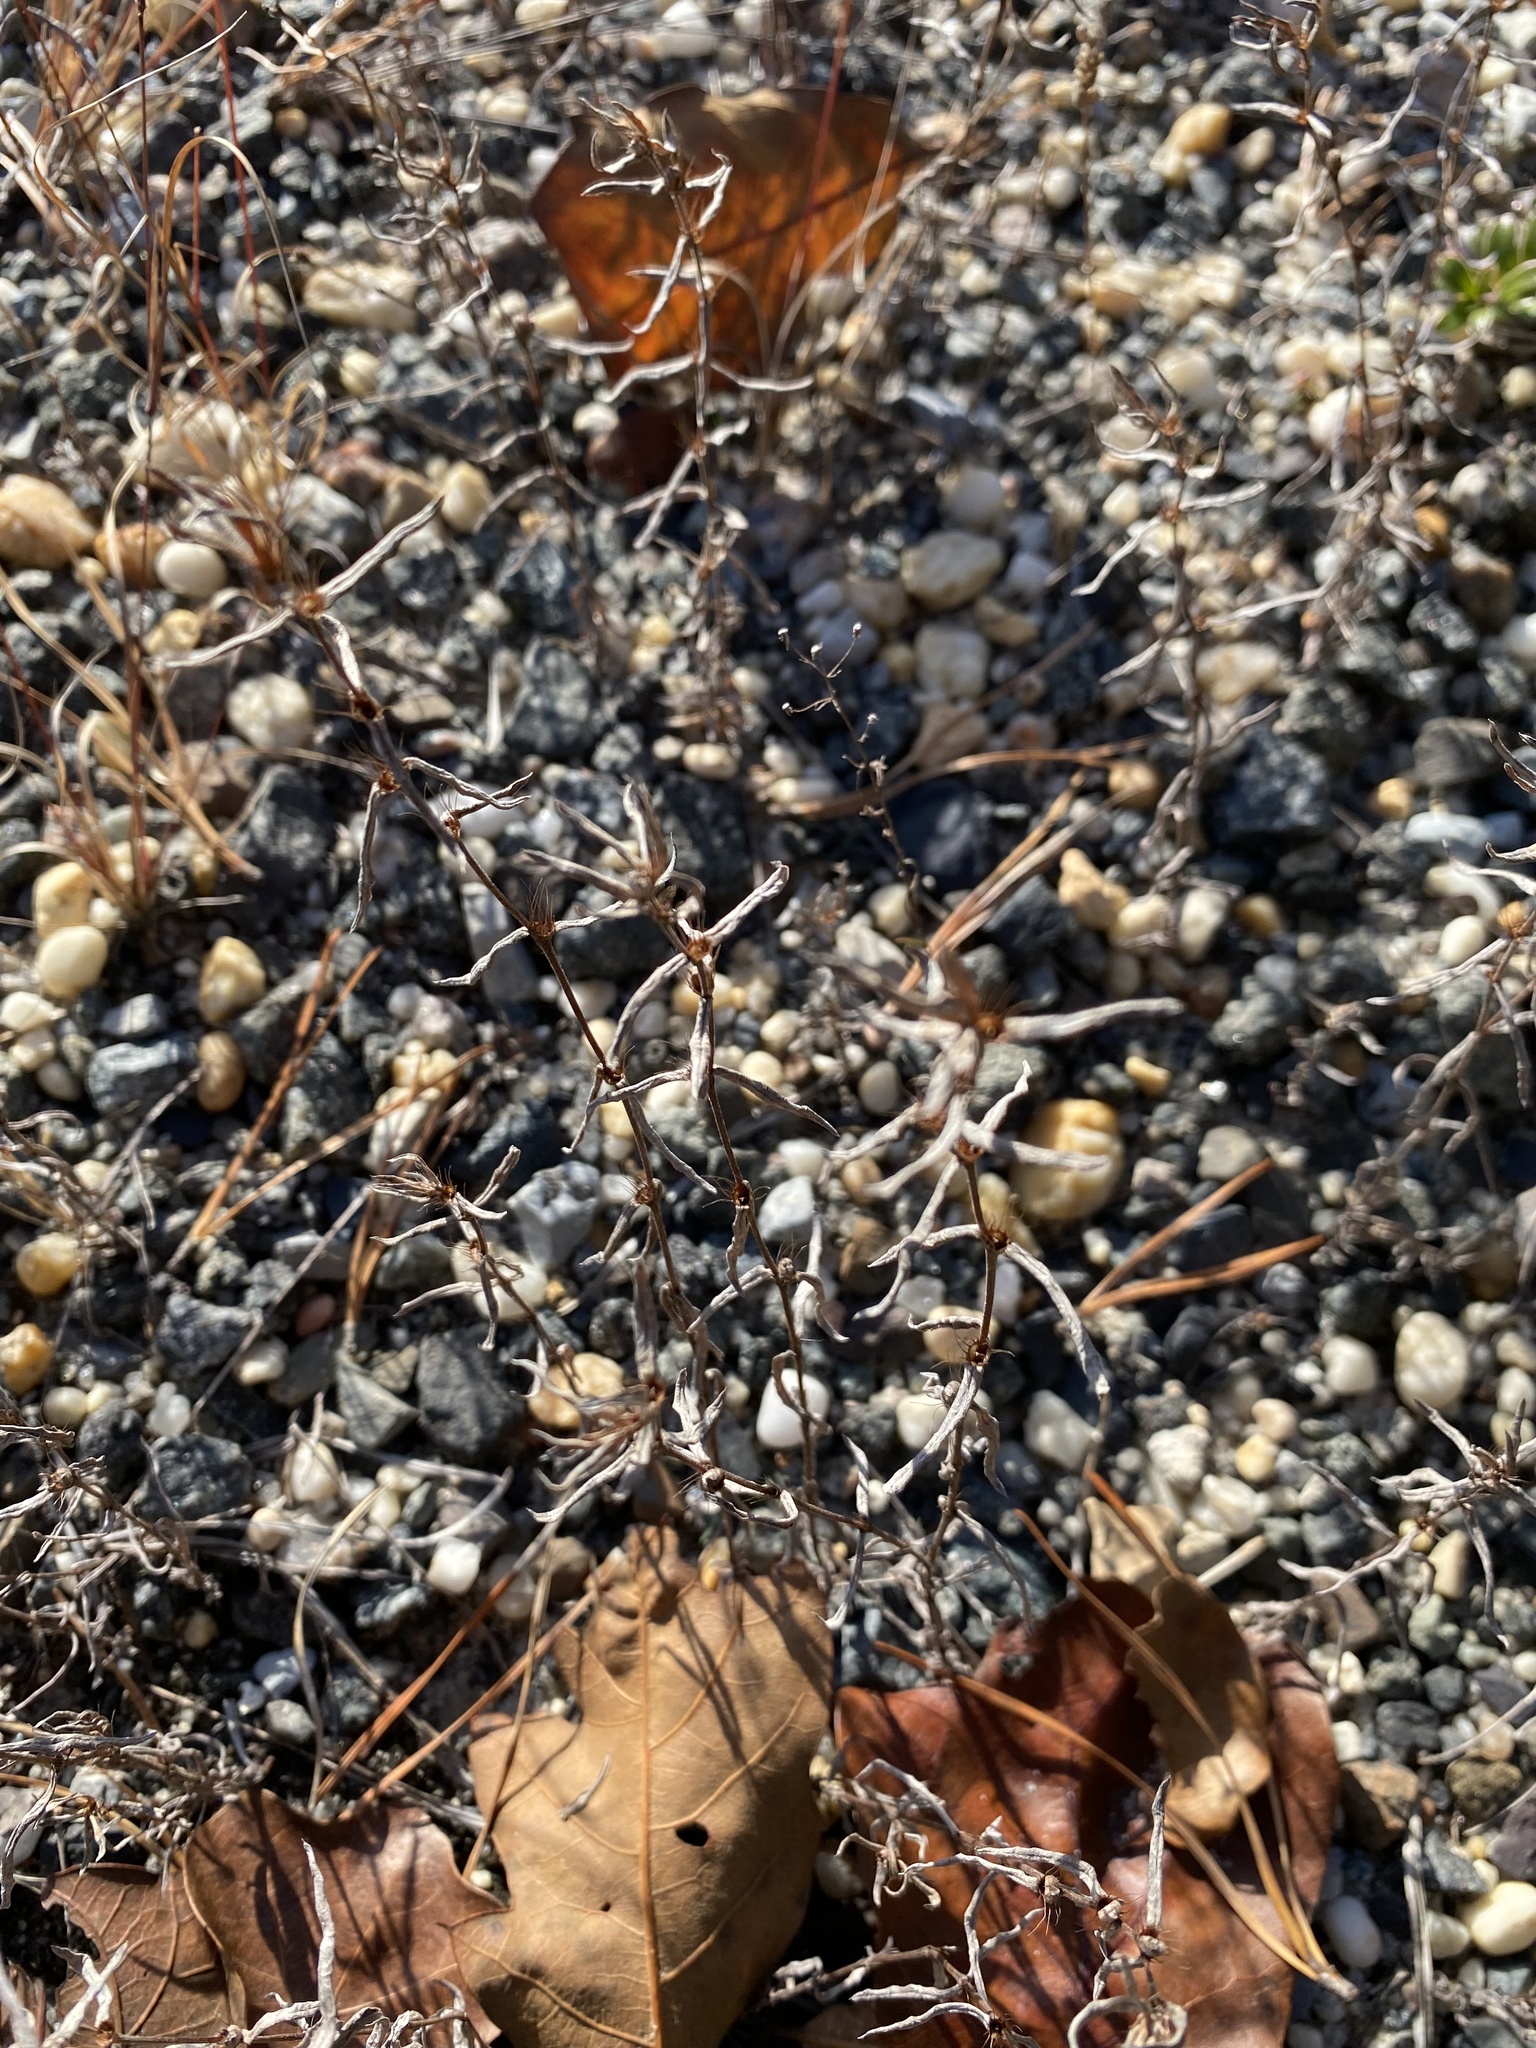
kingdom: Plantae
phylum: Tracheophyta
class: Magnoliopsida
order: Gentianales
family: Rubiaceae
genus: Hexasepalum
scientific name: Hexasepalum teres
